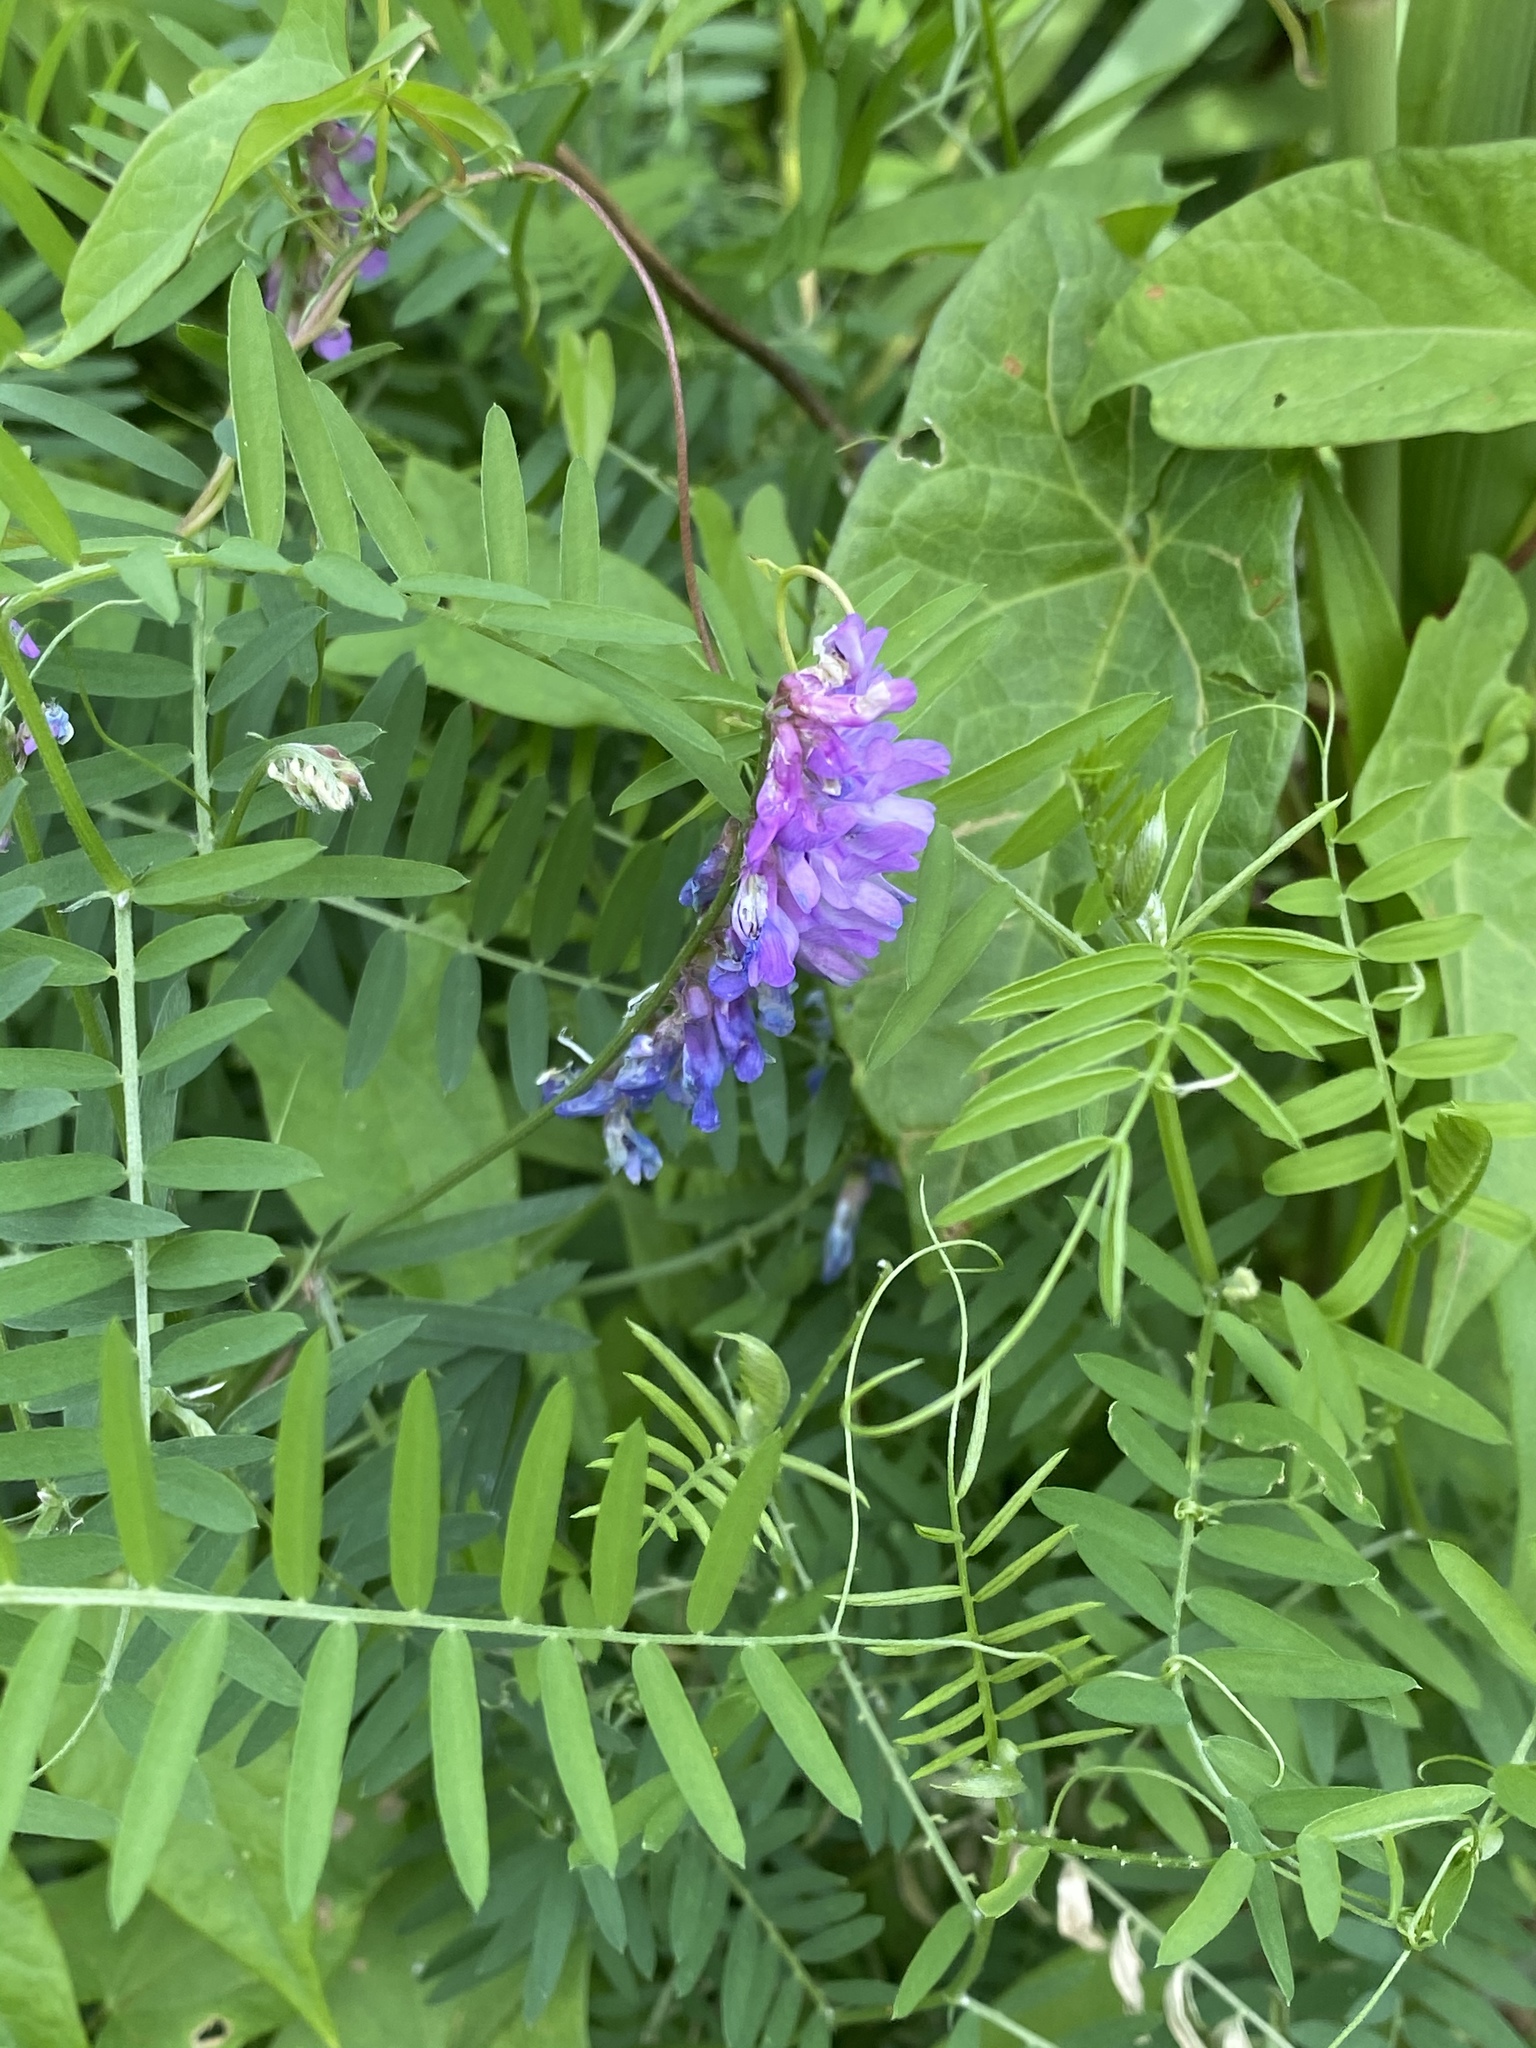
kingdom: Plantae
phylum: Tracheophyta
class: Magnoliopsida
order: Fabales
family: Fabaceae
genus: Vicia
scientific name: Vicia cracca
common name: Bird vetch
